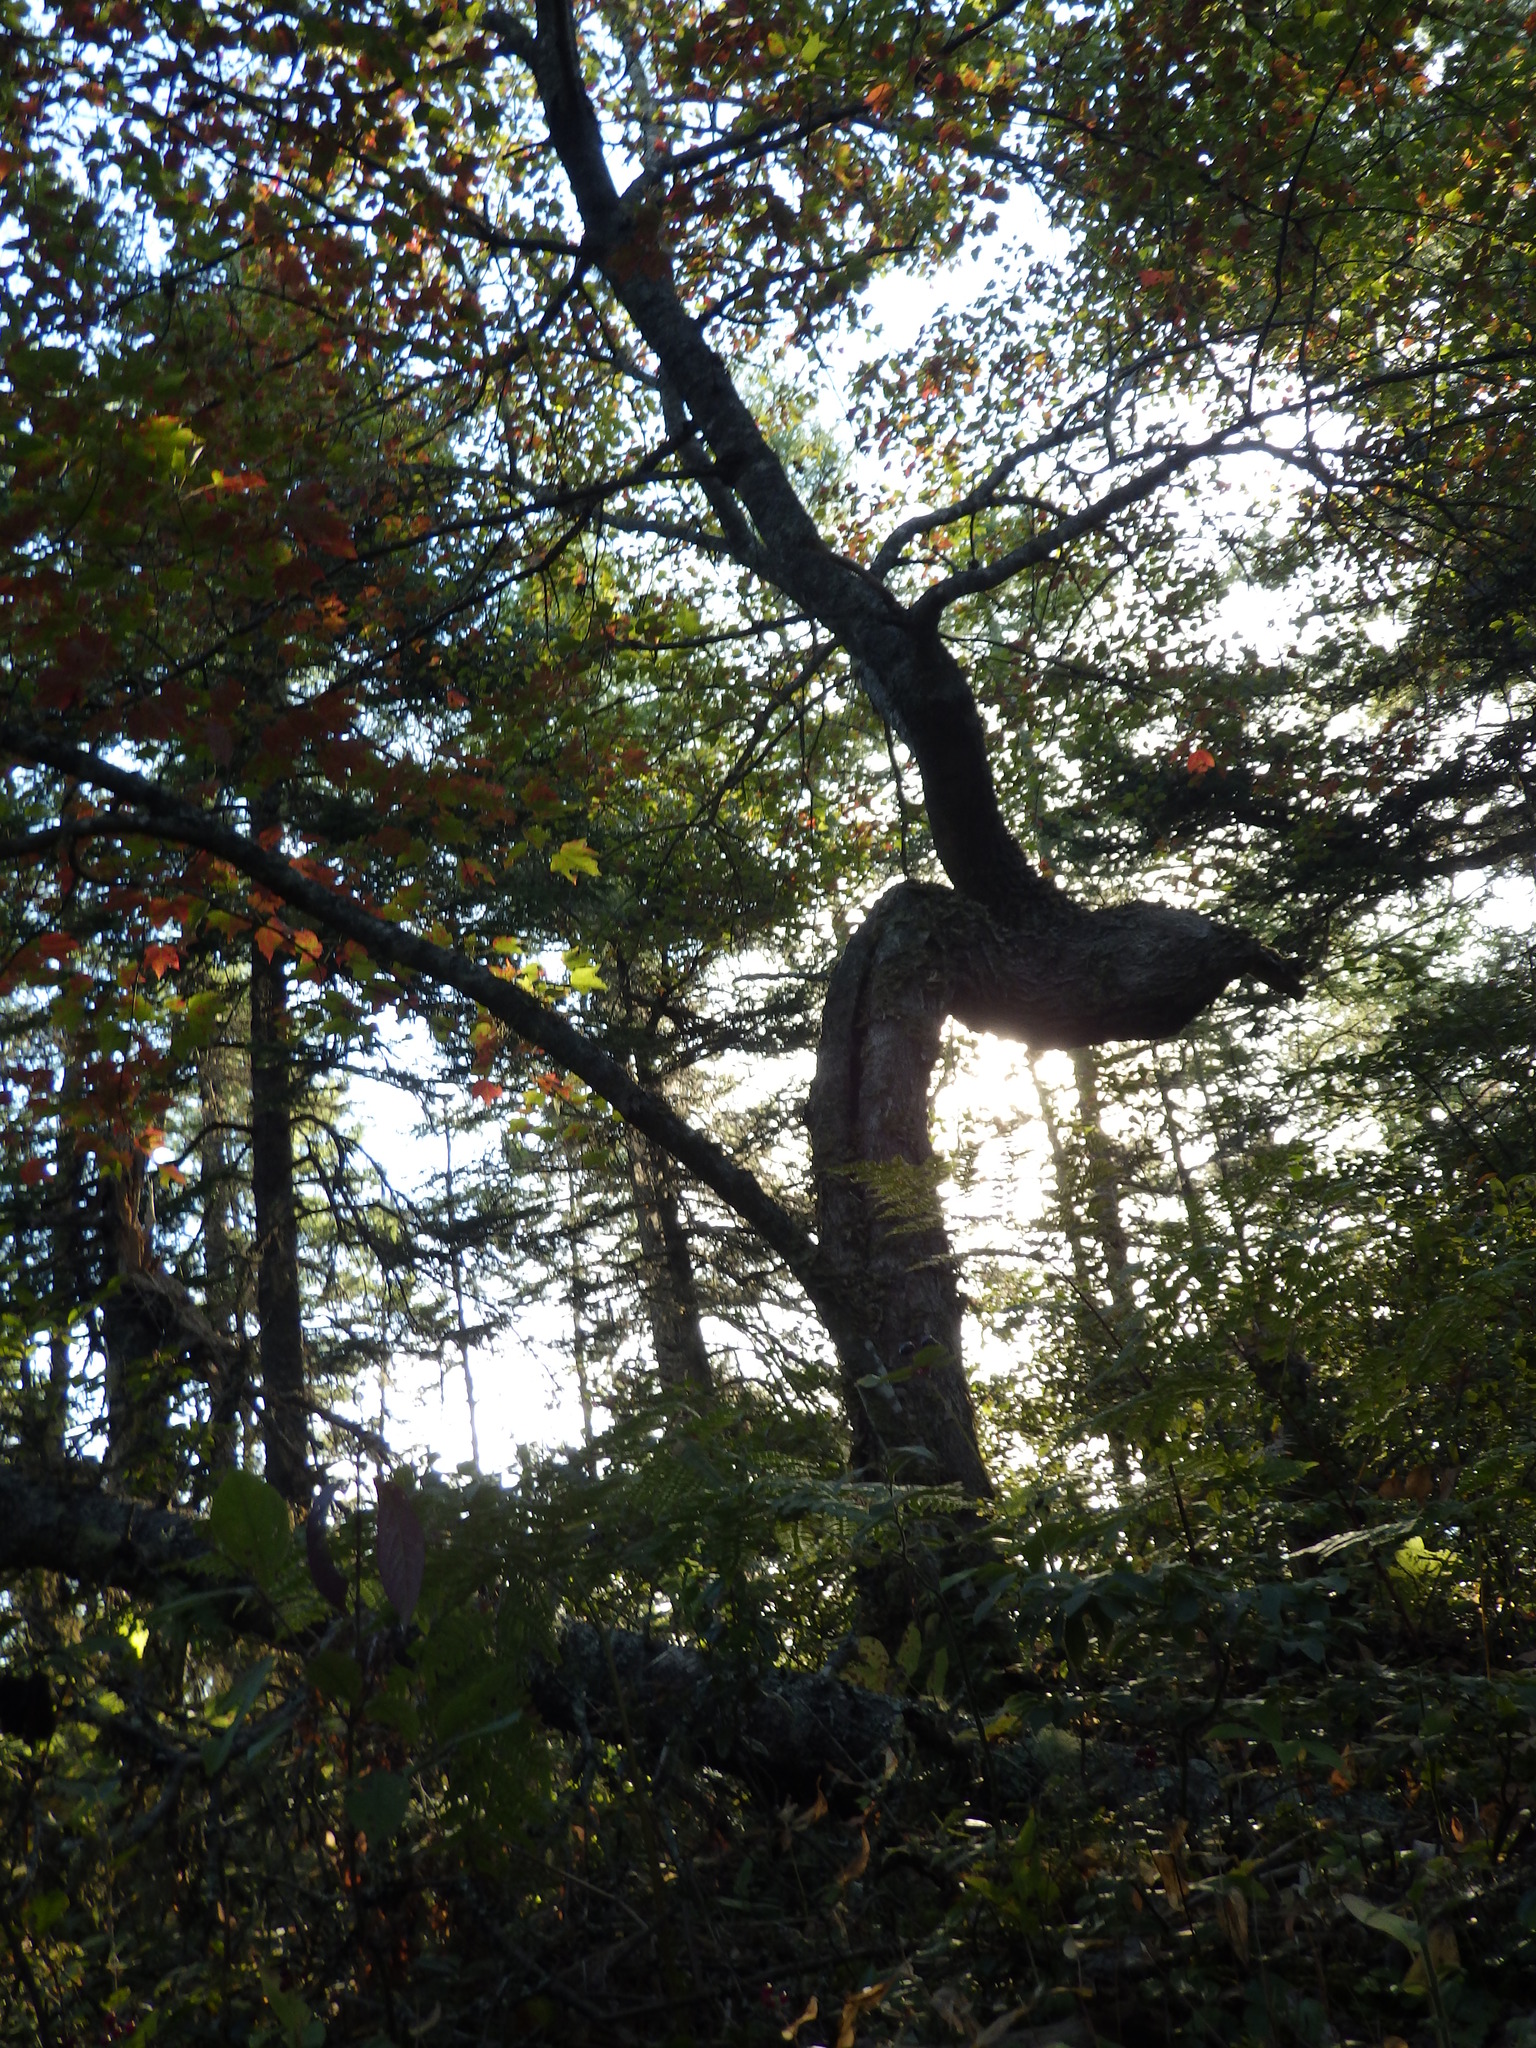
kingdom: Plantae
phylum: Tracheophyta
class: Magnoliopsida
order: Sapindales
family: Sapindaceae
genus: Acer
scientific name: Acer rubrum
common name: Red maple
